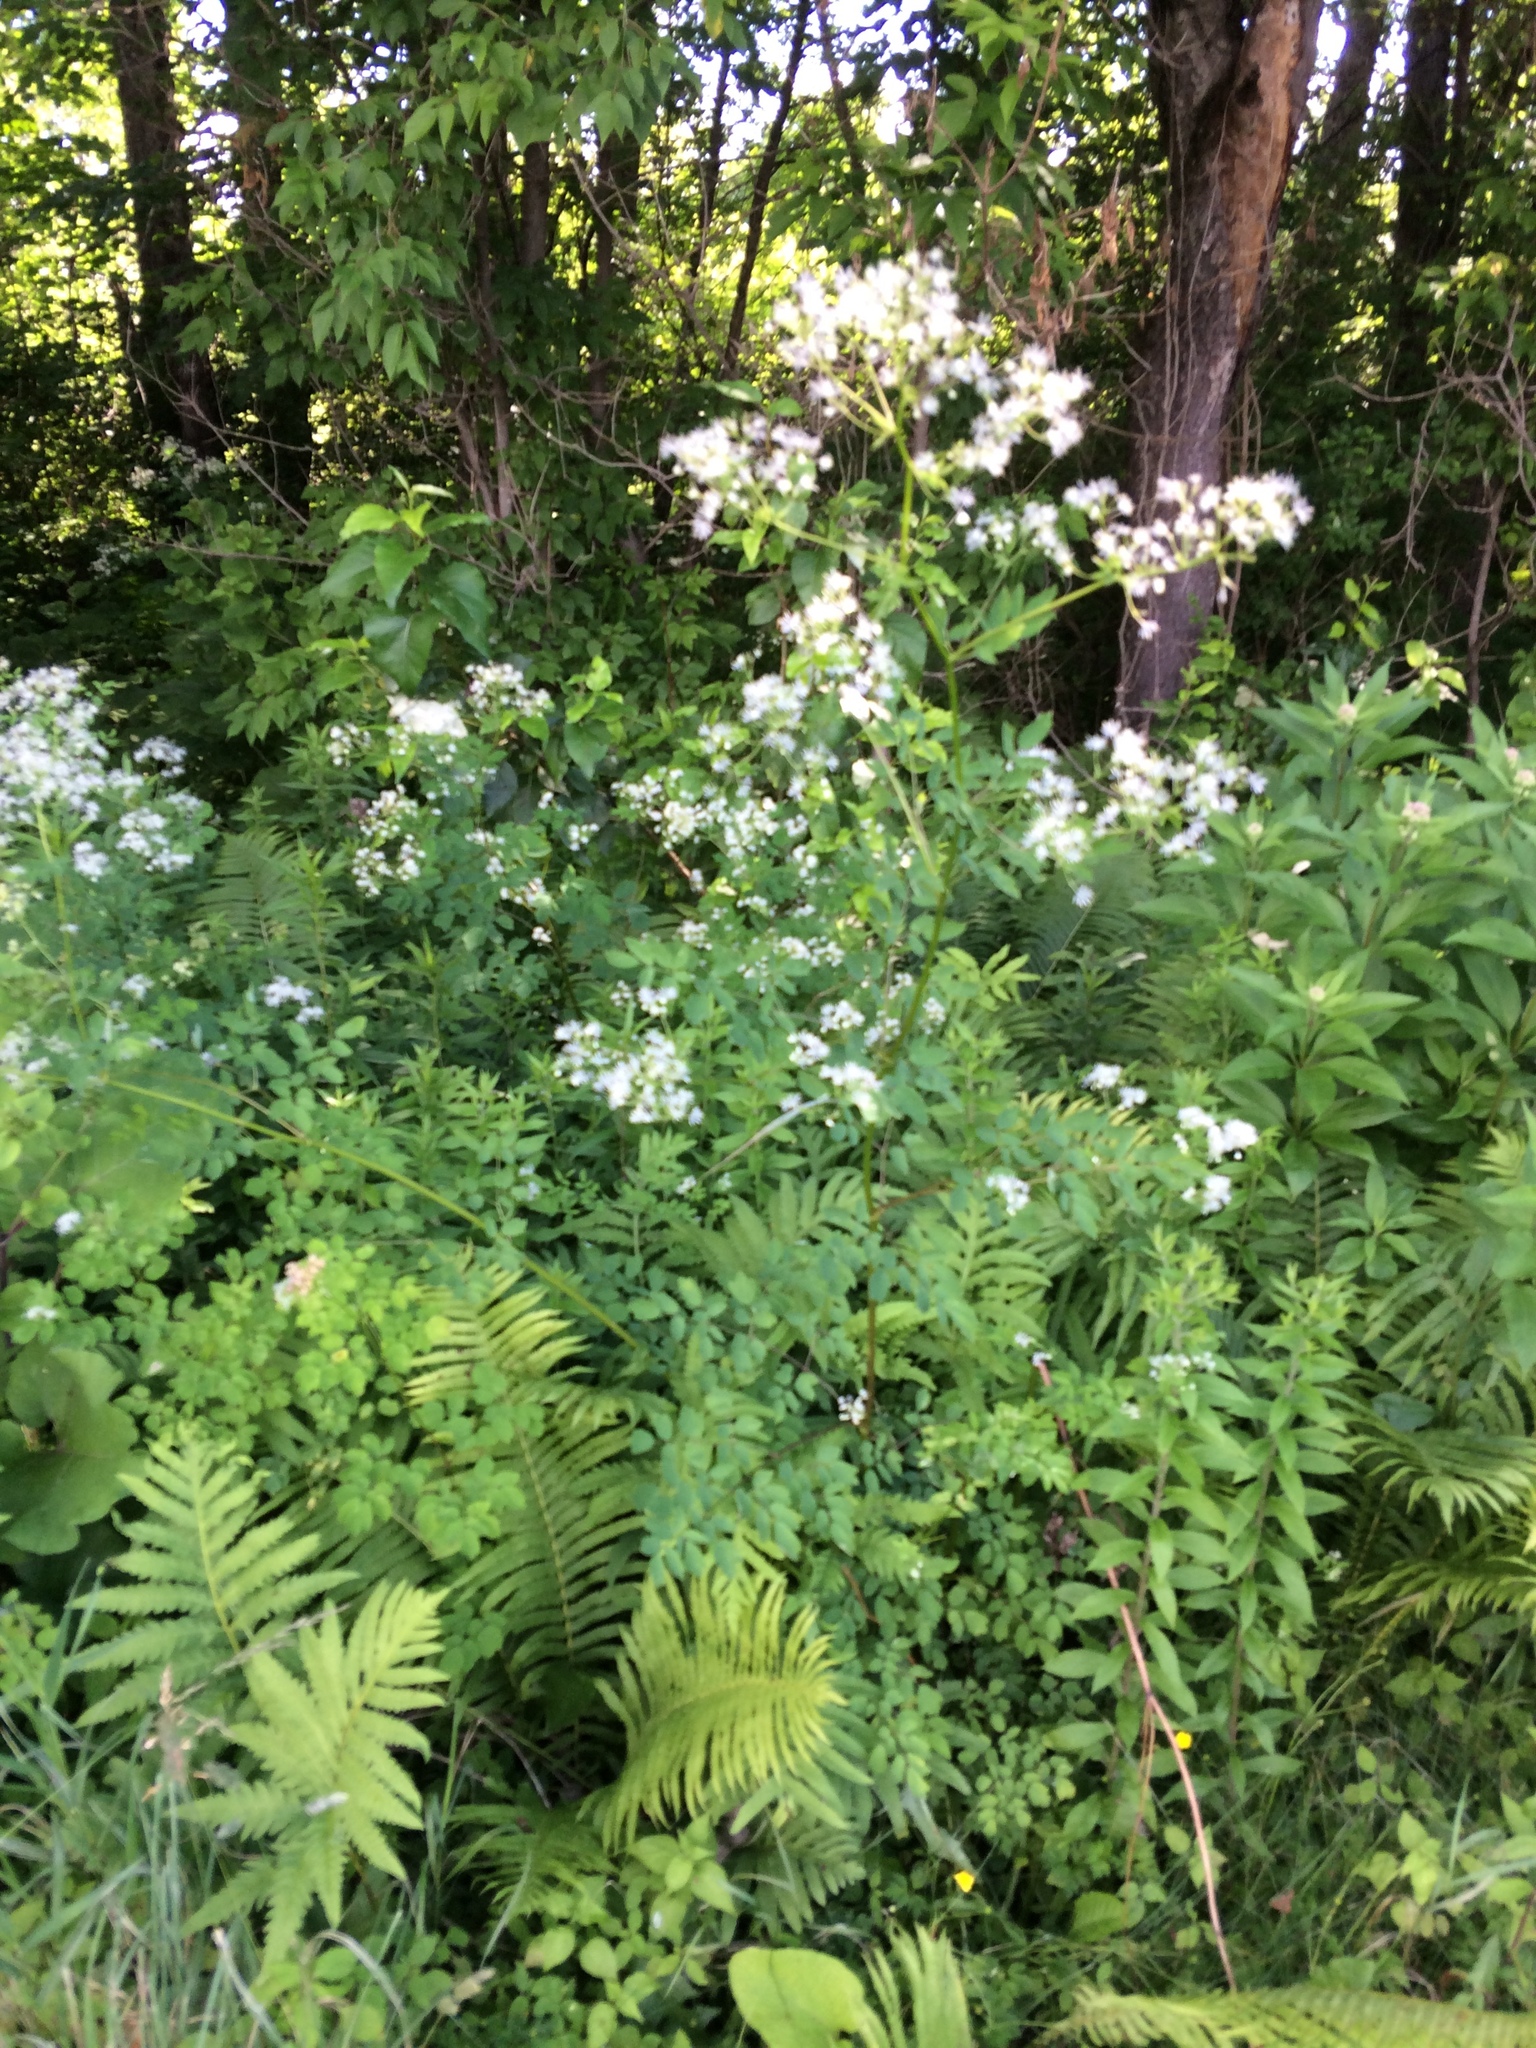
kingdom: Plantae
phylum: Tracheophyta
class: Magnoliopsida
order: Ranunculales
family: Ranunculaceae
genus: Thalictrum
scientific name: Thalictrum pubescens
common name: King-of-the-meadow
